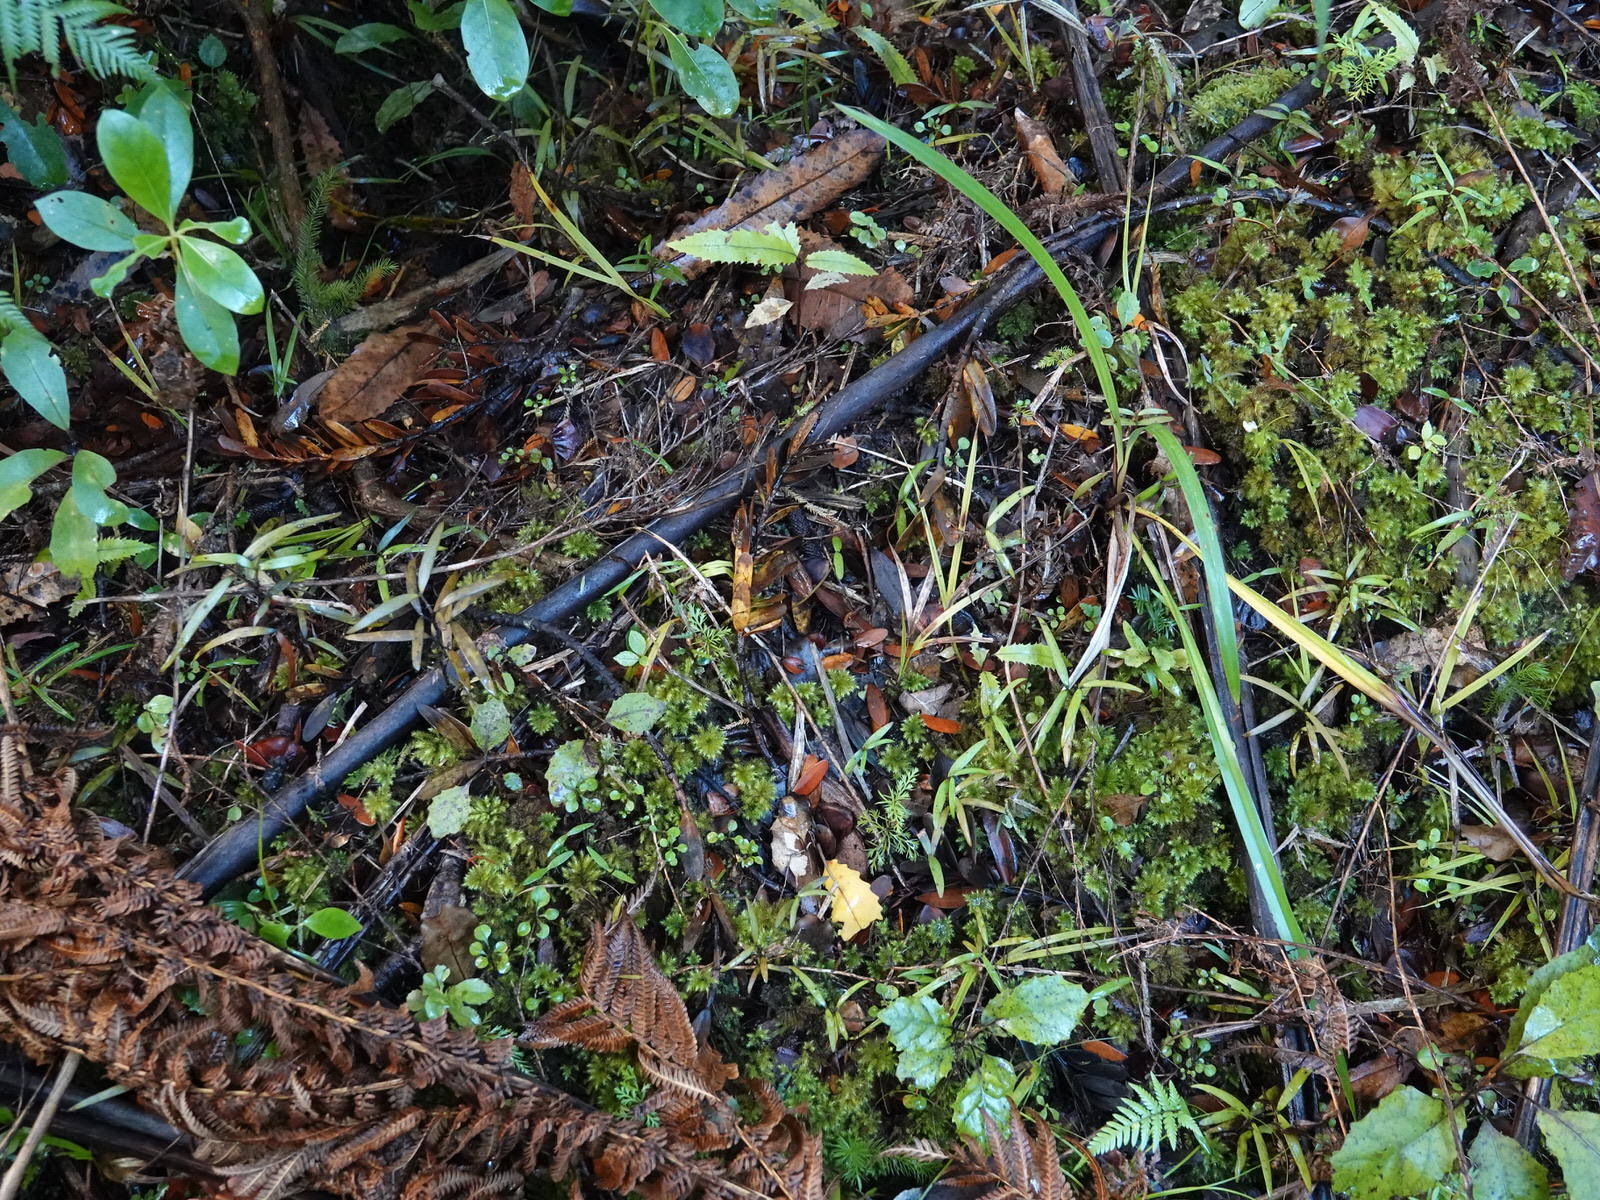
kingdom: Plantae
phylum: Tracheophyta
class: Pinopsida
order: Pinales
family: Araucariaceae
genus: Agathis
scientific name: Agathis australis
